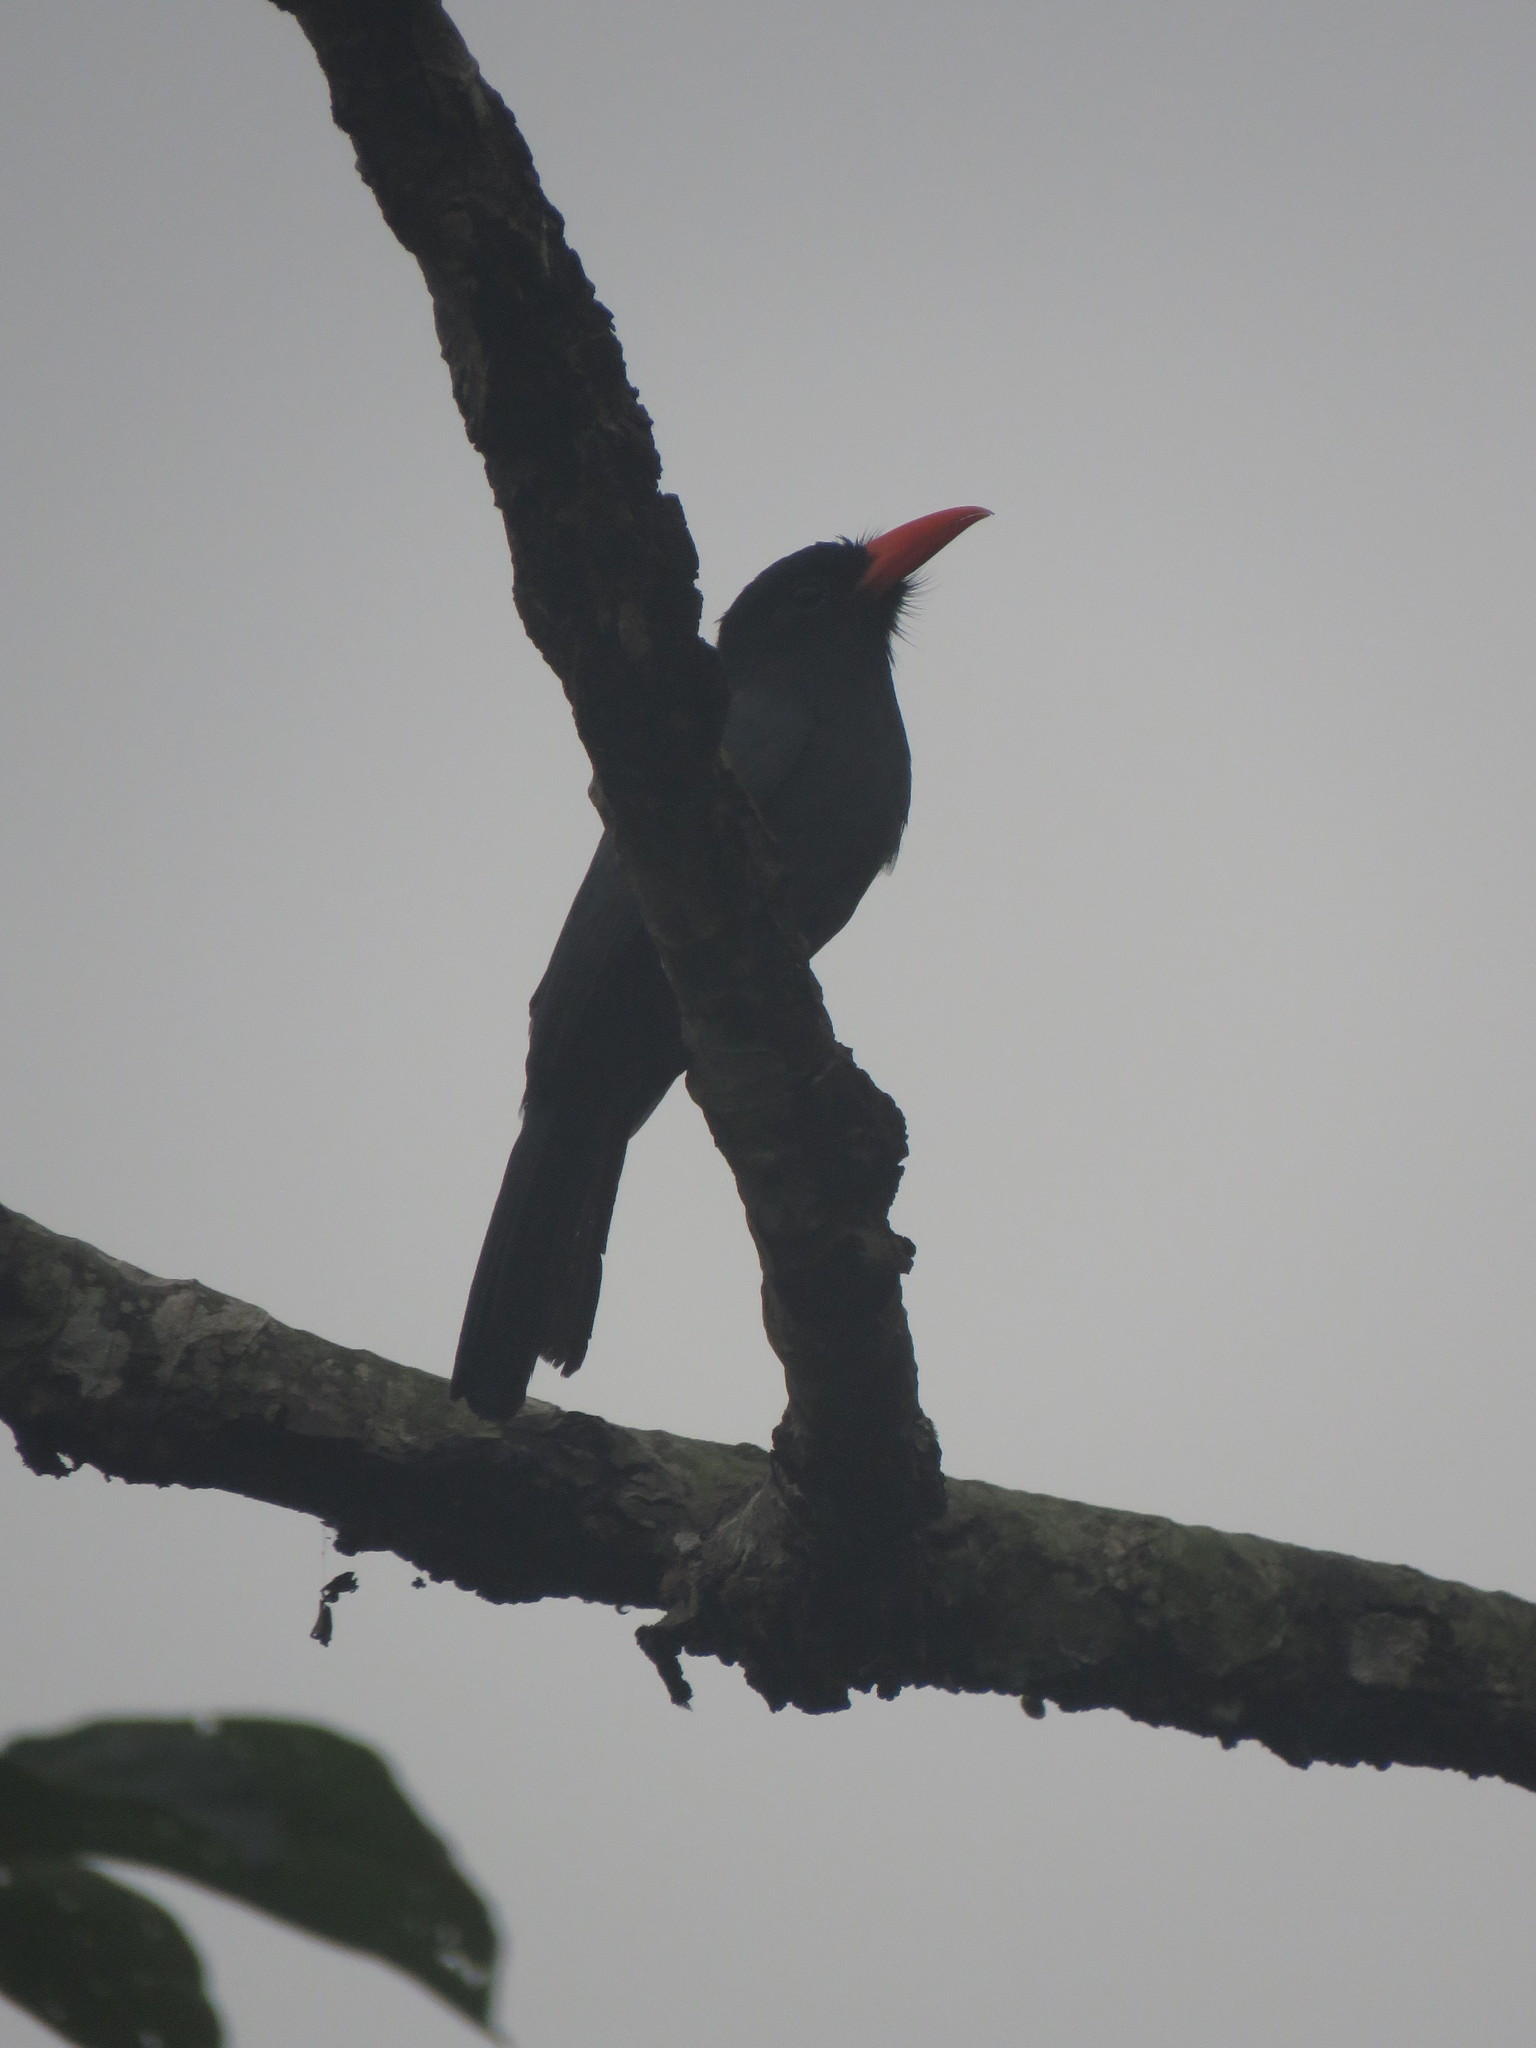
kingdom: Animalia
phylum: Chordata
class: Aves
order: Piciformes
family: Bucconidae
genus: Monasa
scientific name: Monasa nigrifrons
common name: Black-fronted nunbird
